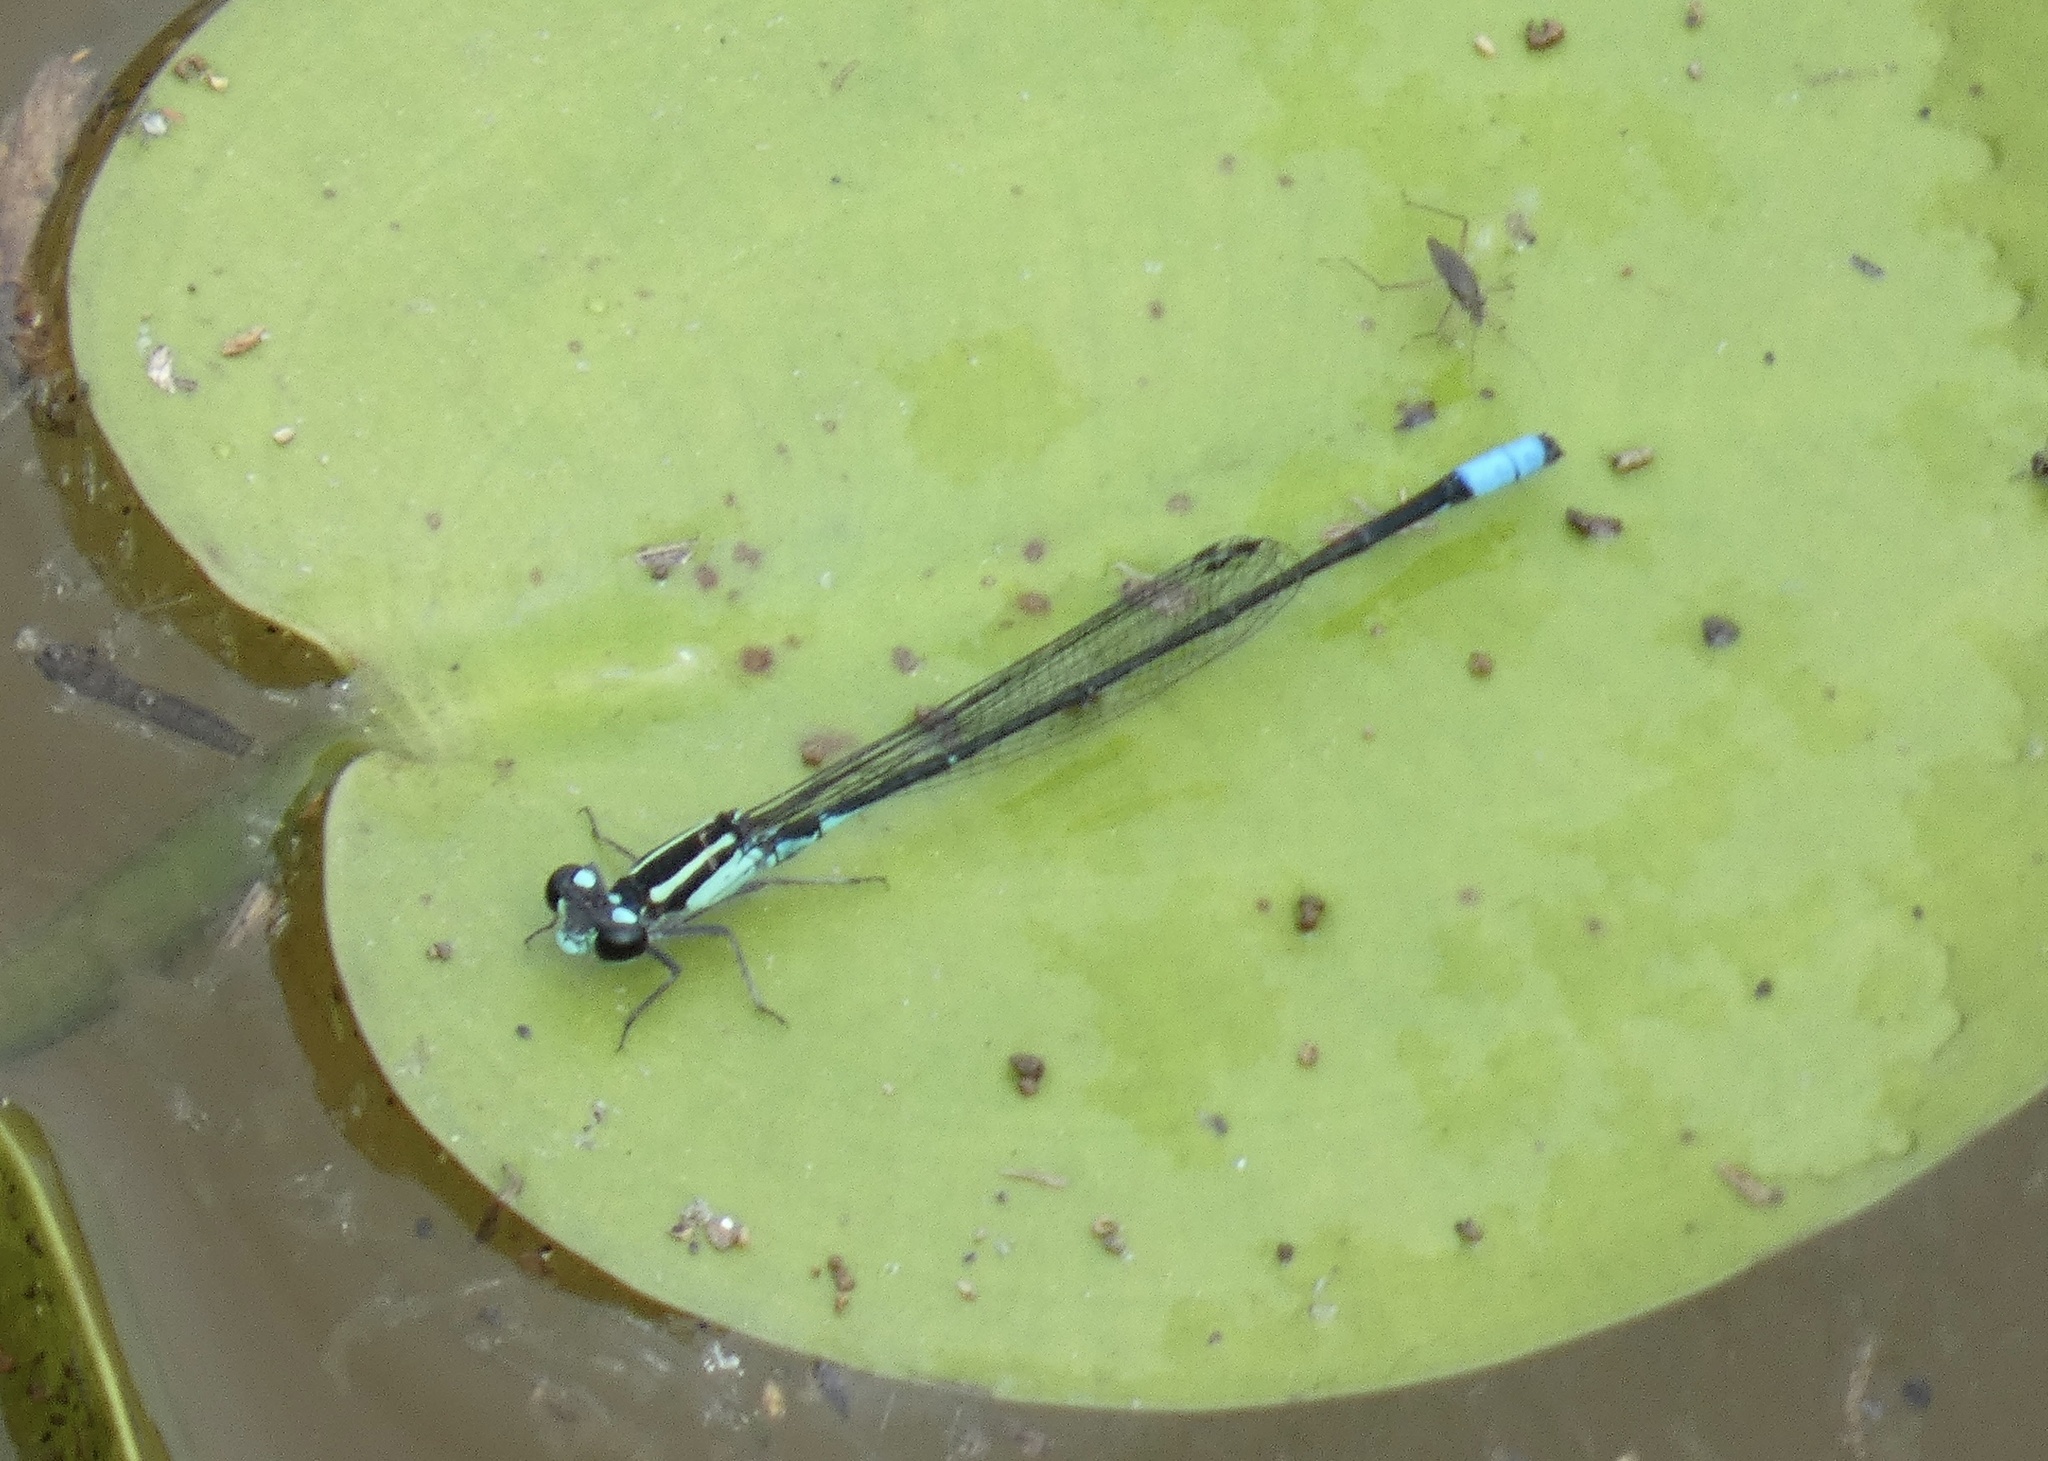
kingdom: Animalia
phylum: Arthropoda
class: Insecta
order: Odonata
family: Coenagrionidae
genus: Acanthagrion
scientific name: Acanthagrion lancea
